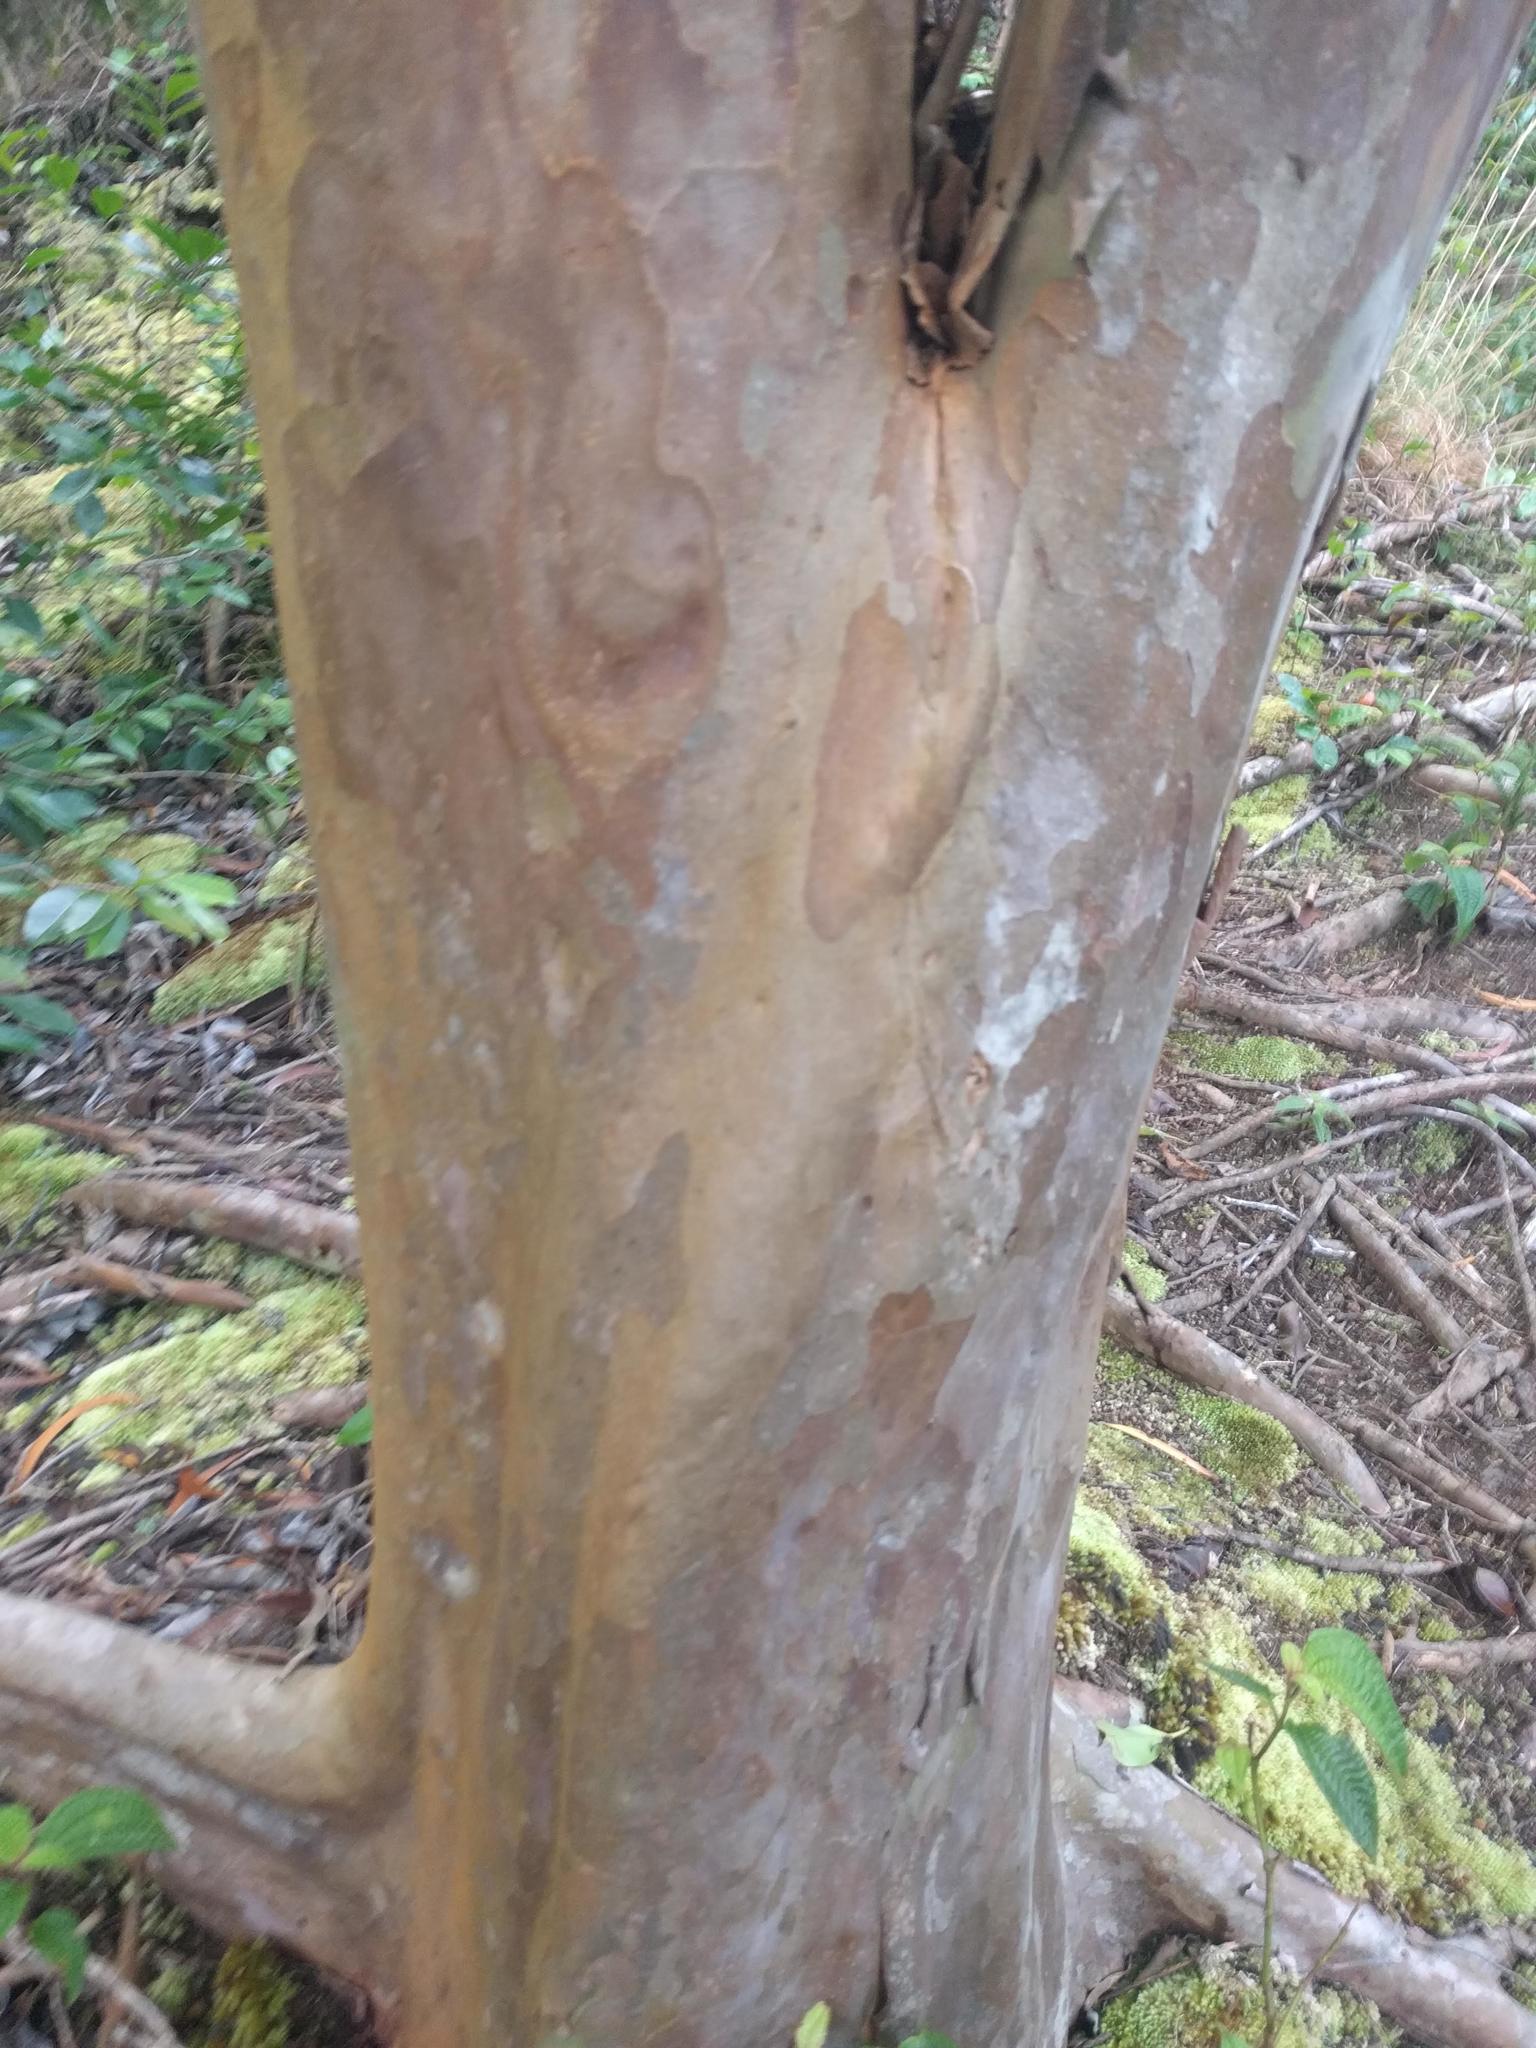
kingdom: Plantae
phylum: Tracheophyta
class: Magnoliopsida
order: Myrtales
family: Myrtaceae
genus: Psidium
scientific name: Psidium cattleianum
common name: Strawberry guava
